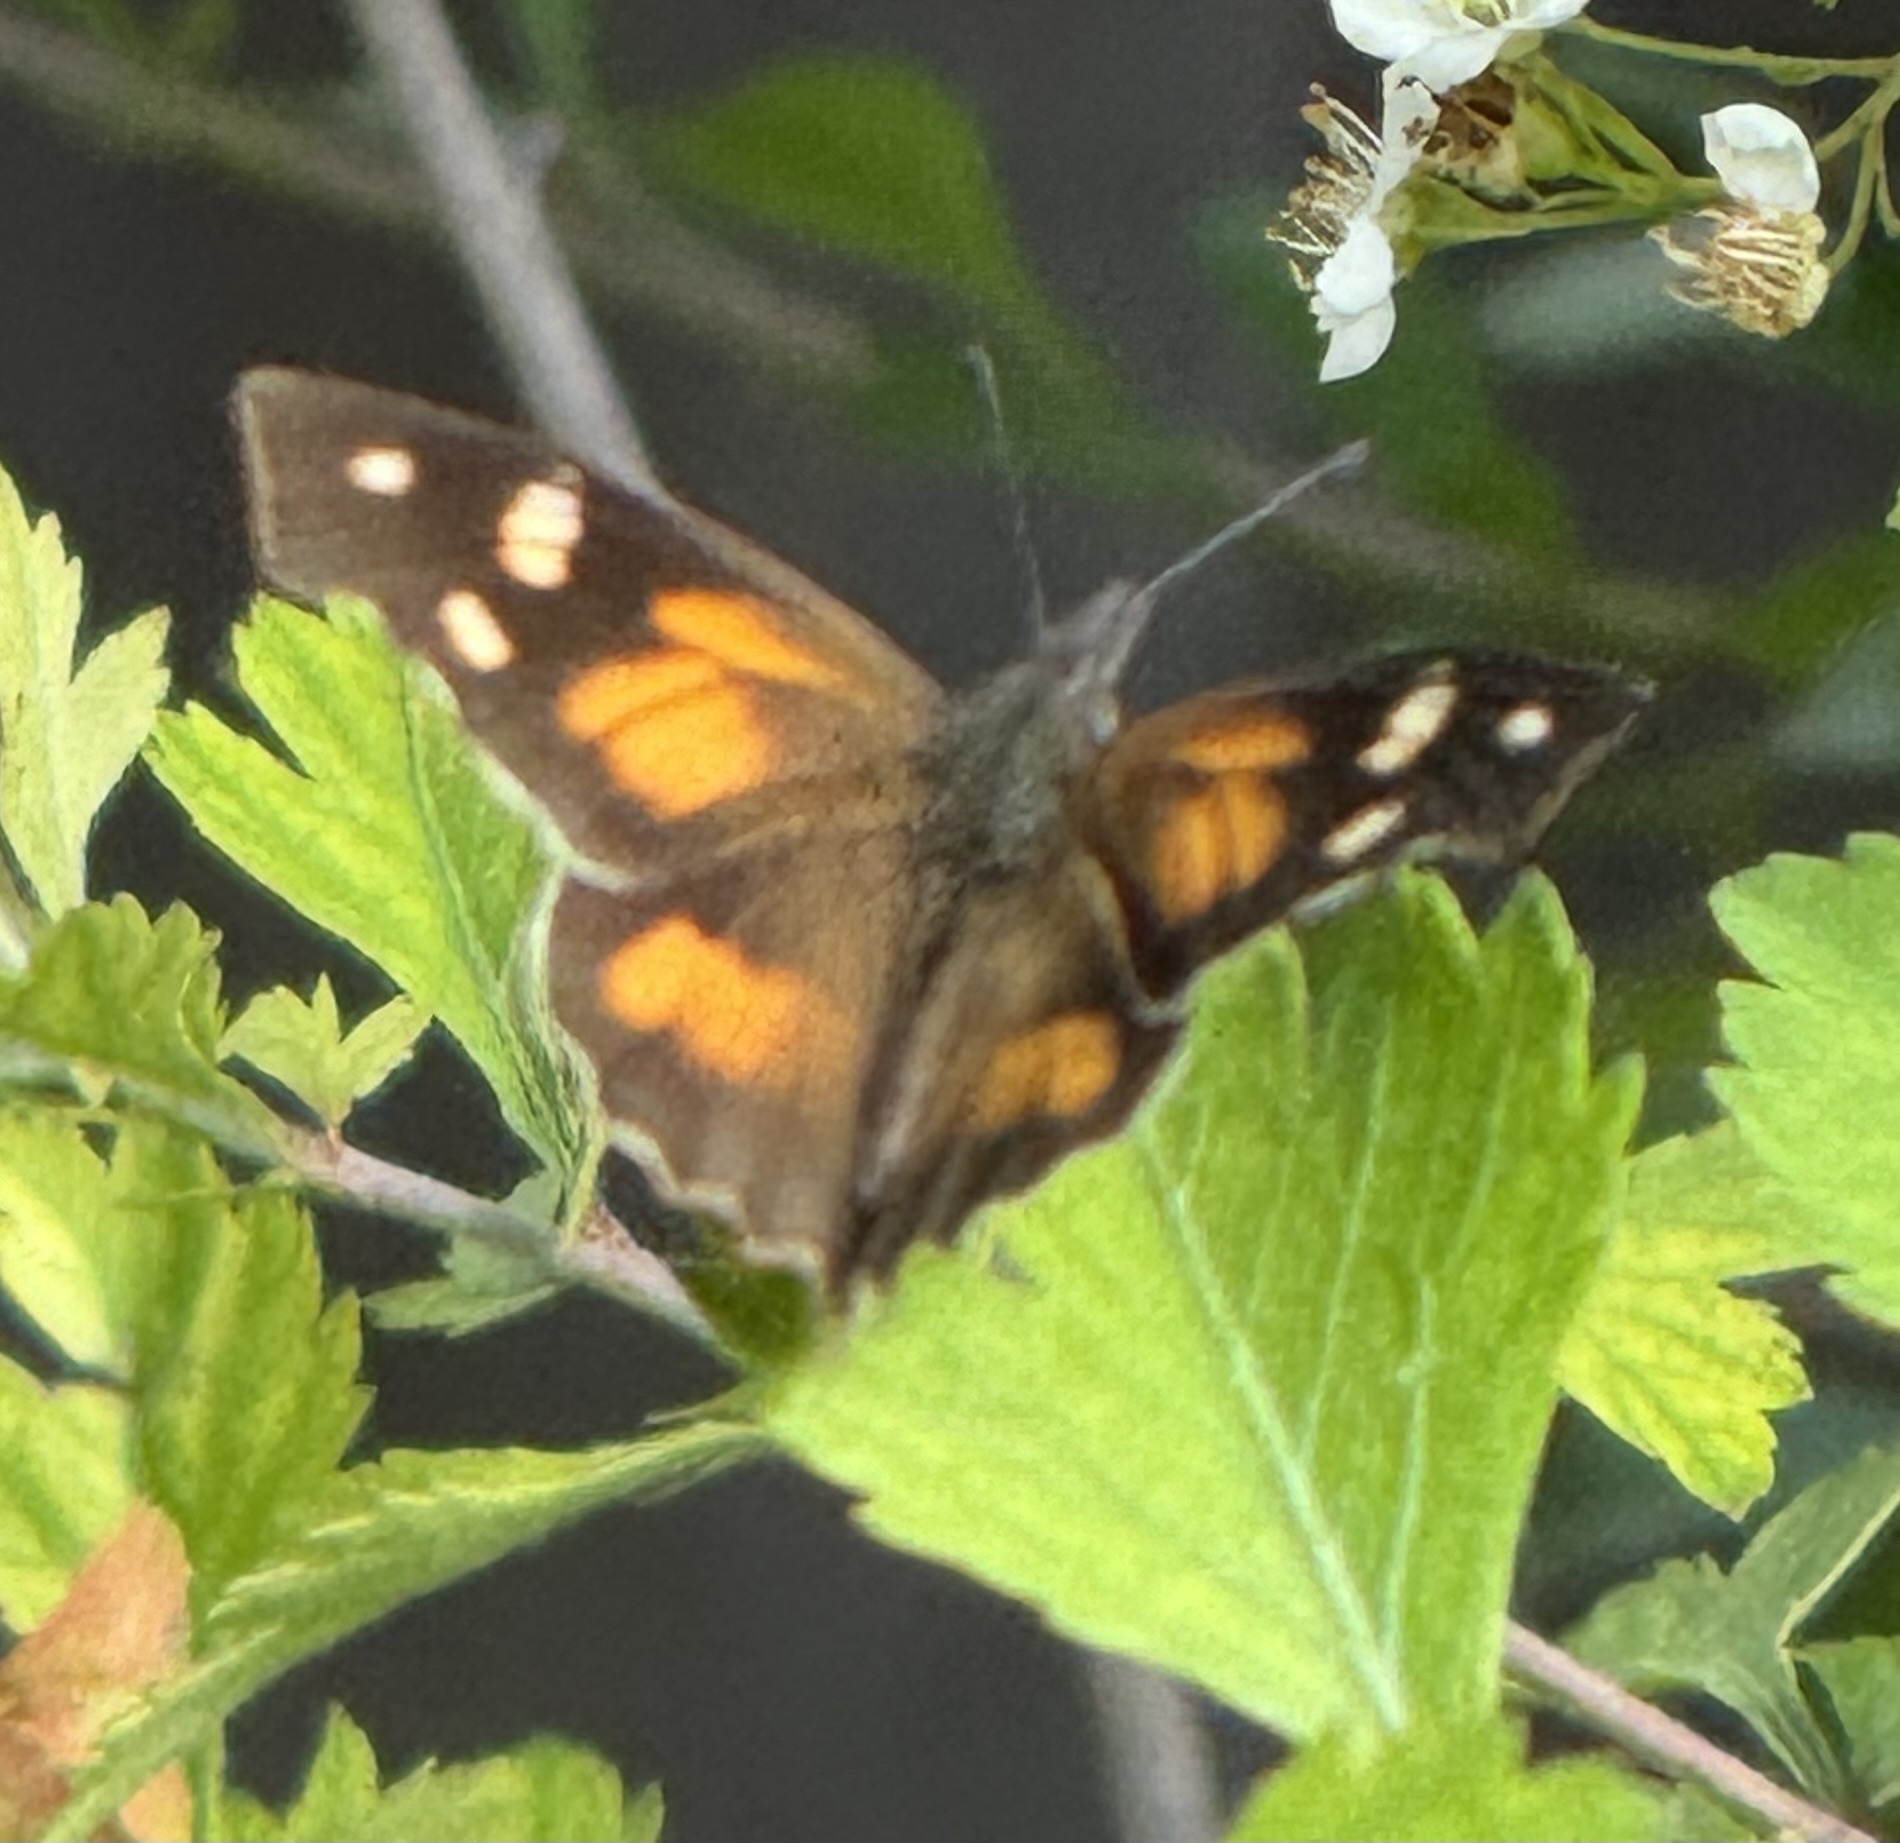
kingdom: Animalia
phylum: Arthropoda
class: Insecta
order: Lepidoptera
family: Nymphalidae
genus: Libytheana
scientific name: Libytheana carinenta
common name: American snout
